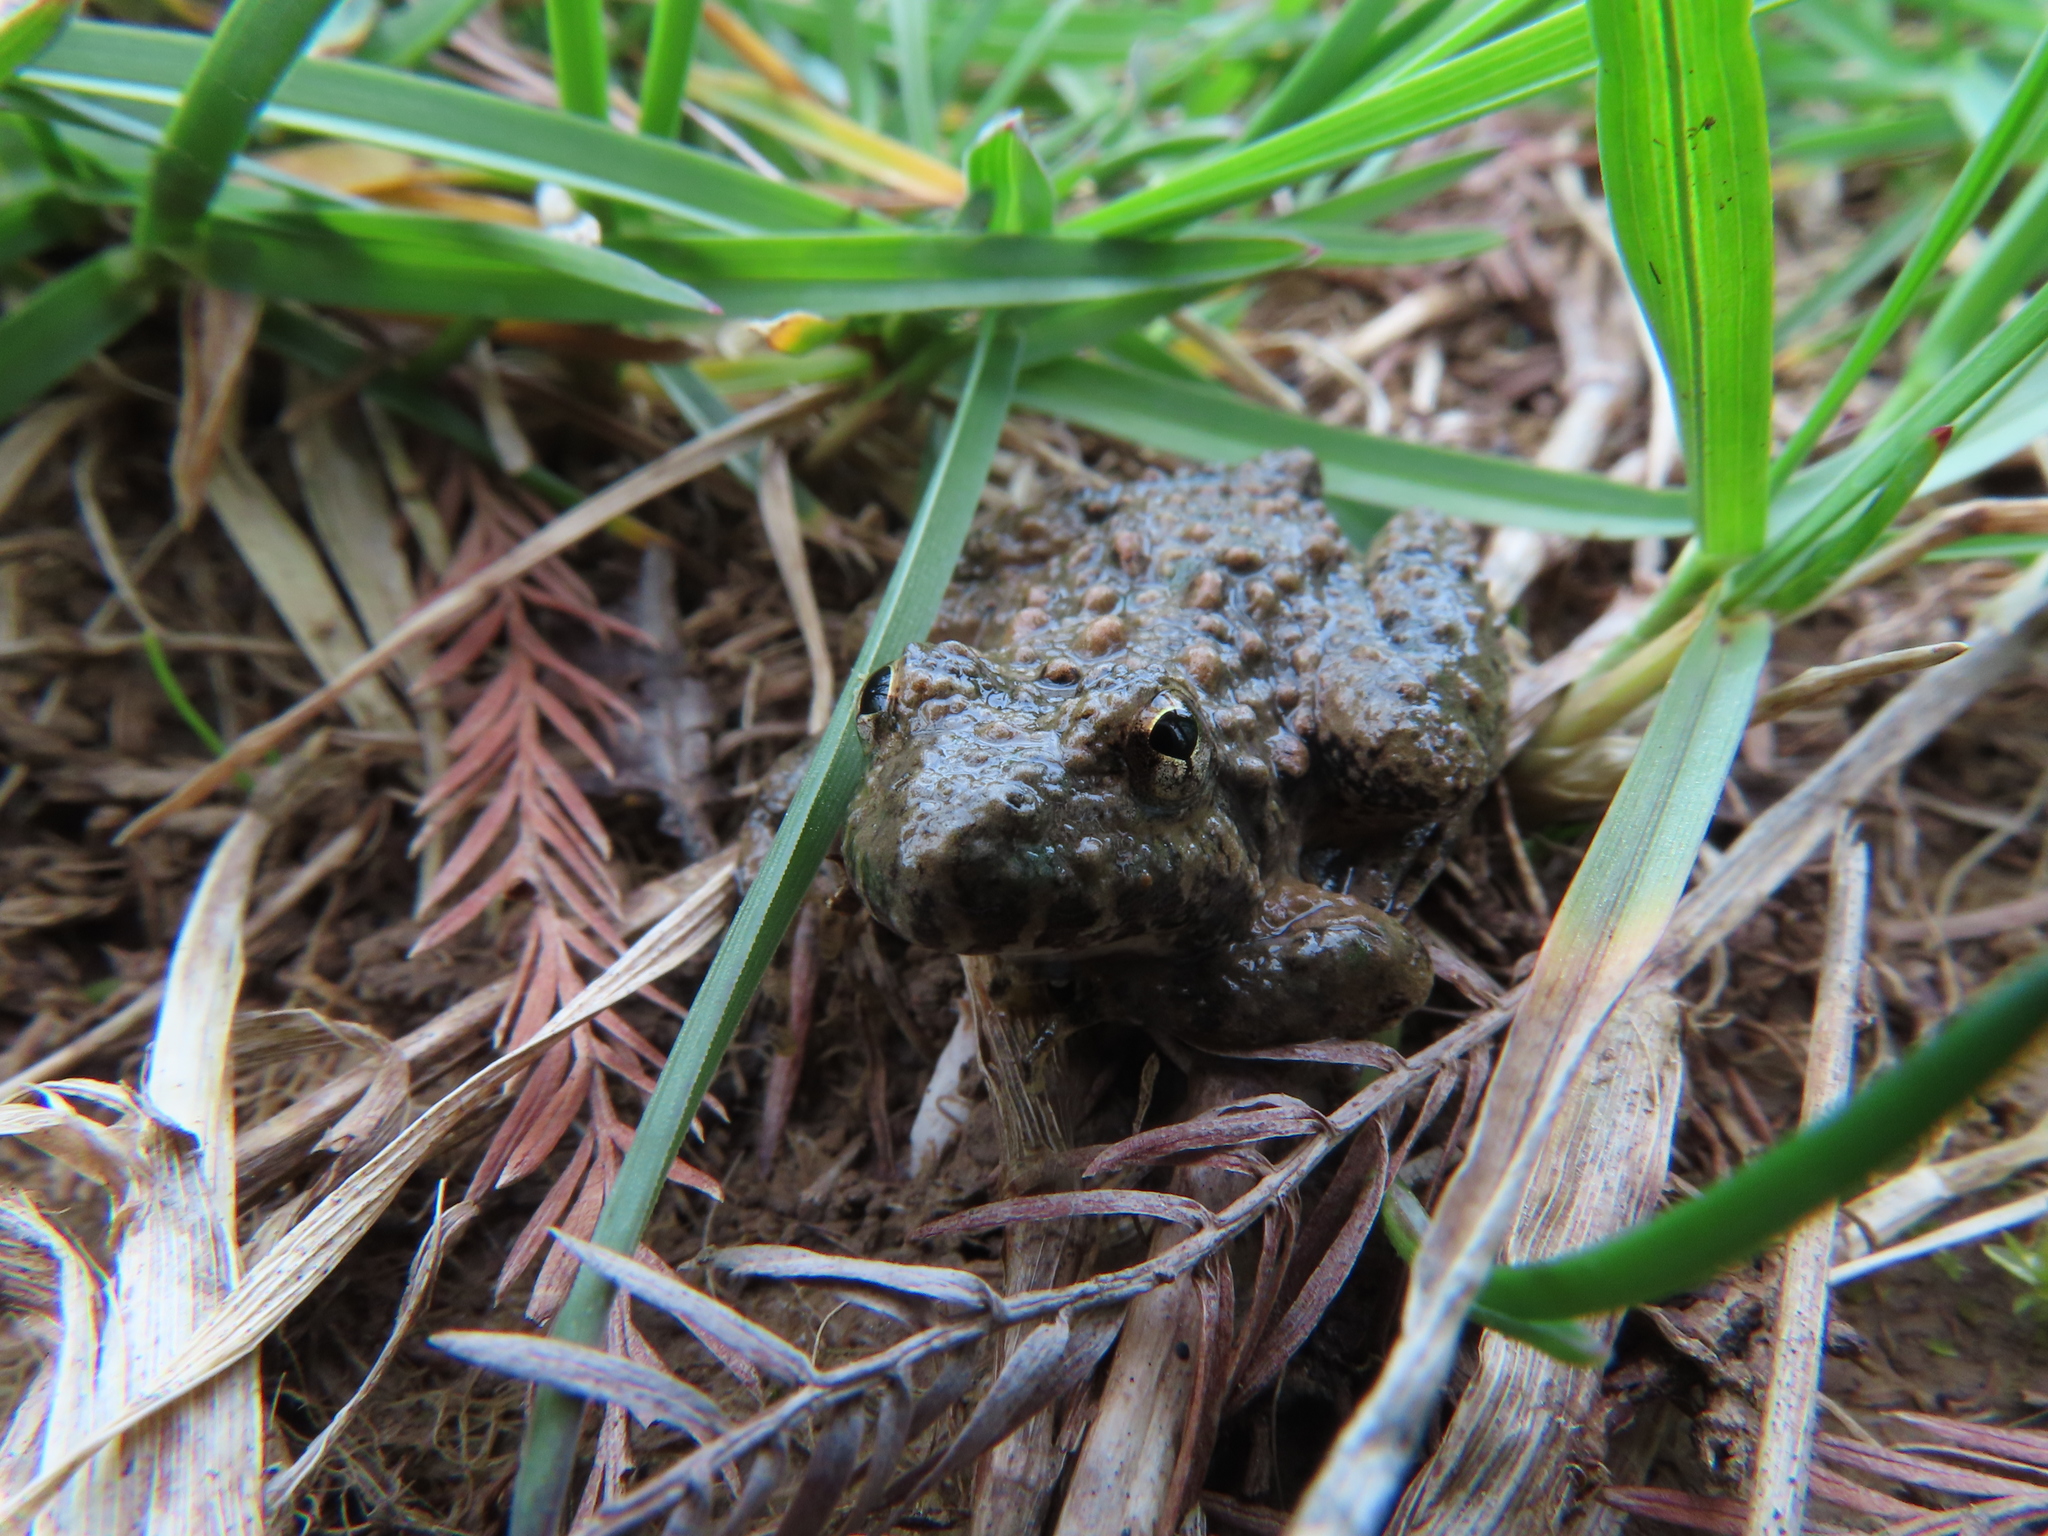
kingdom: Animalia
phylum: Chordata
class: Amphibia
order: Anura
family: Hylidae
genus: Acris
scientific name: Acris blanchardi
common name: Blanchard's cricket frog
